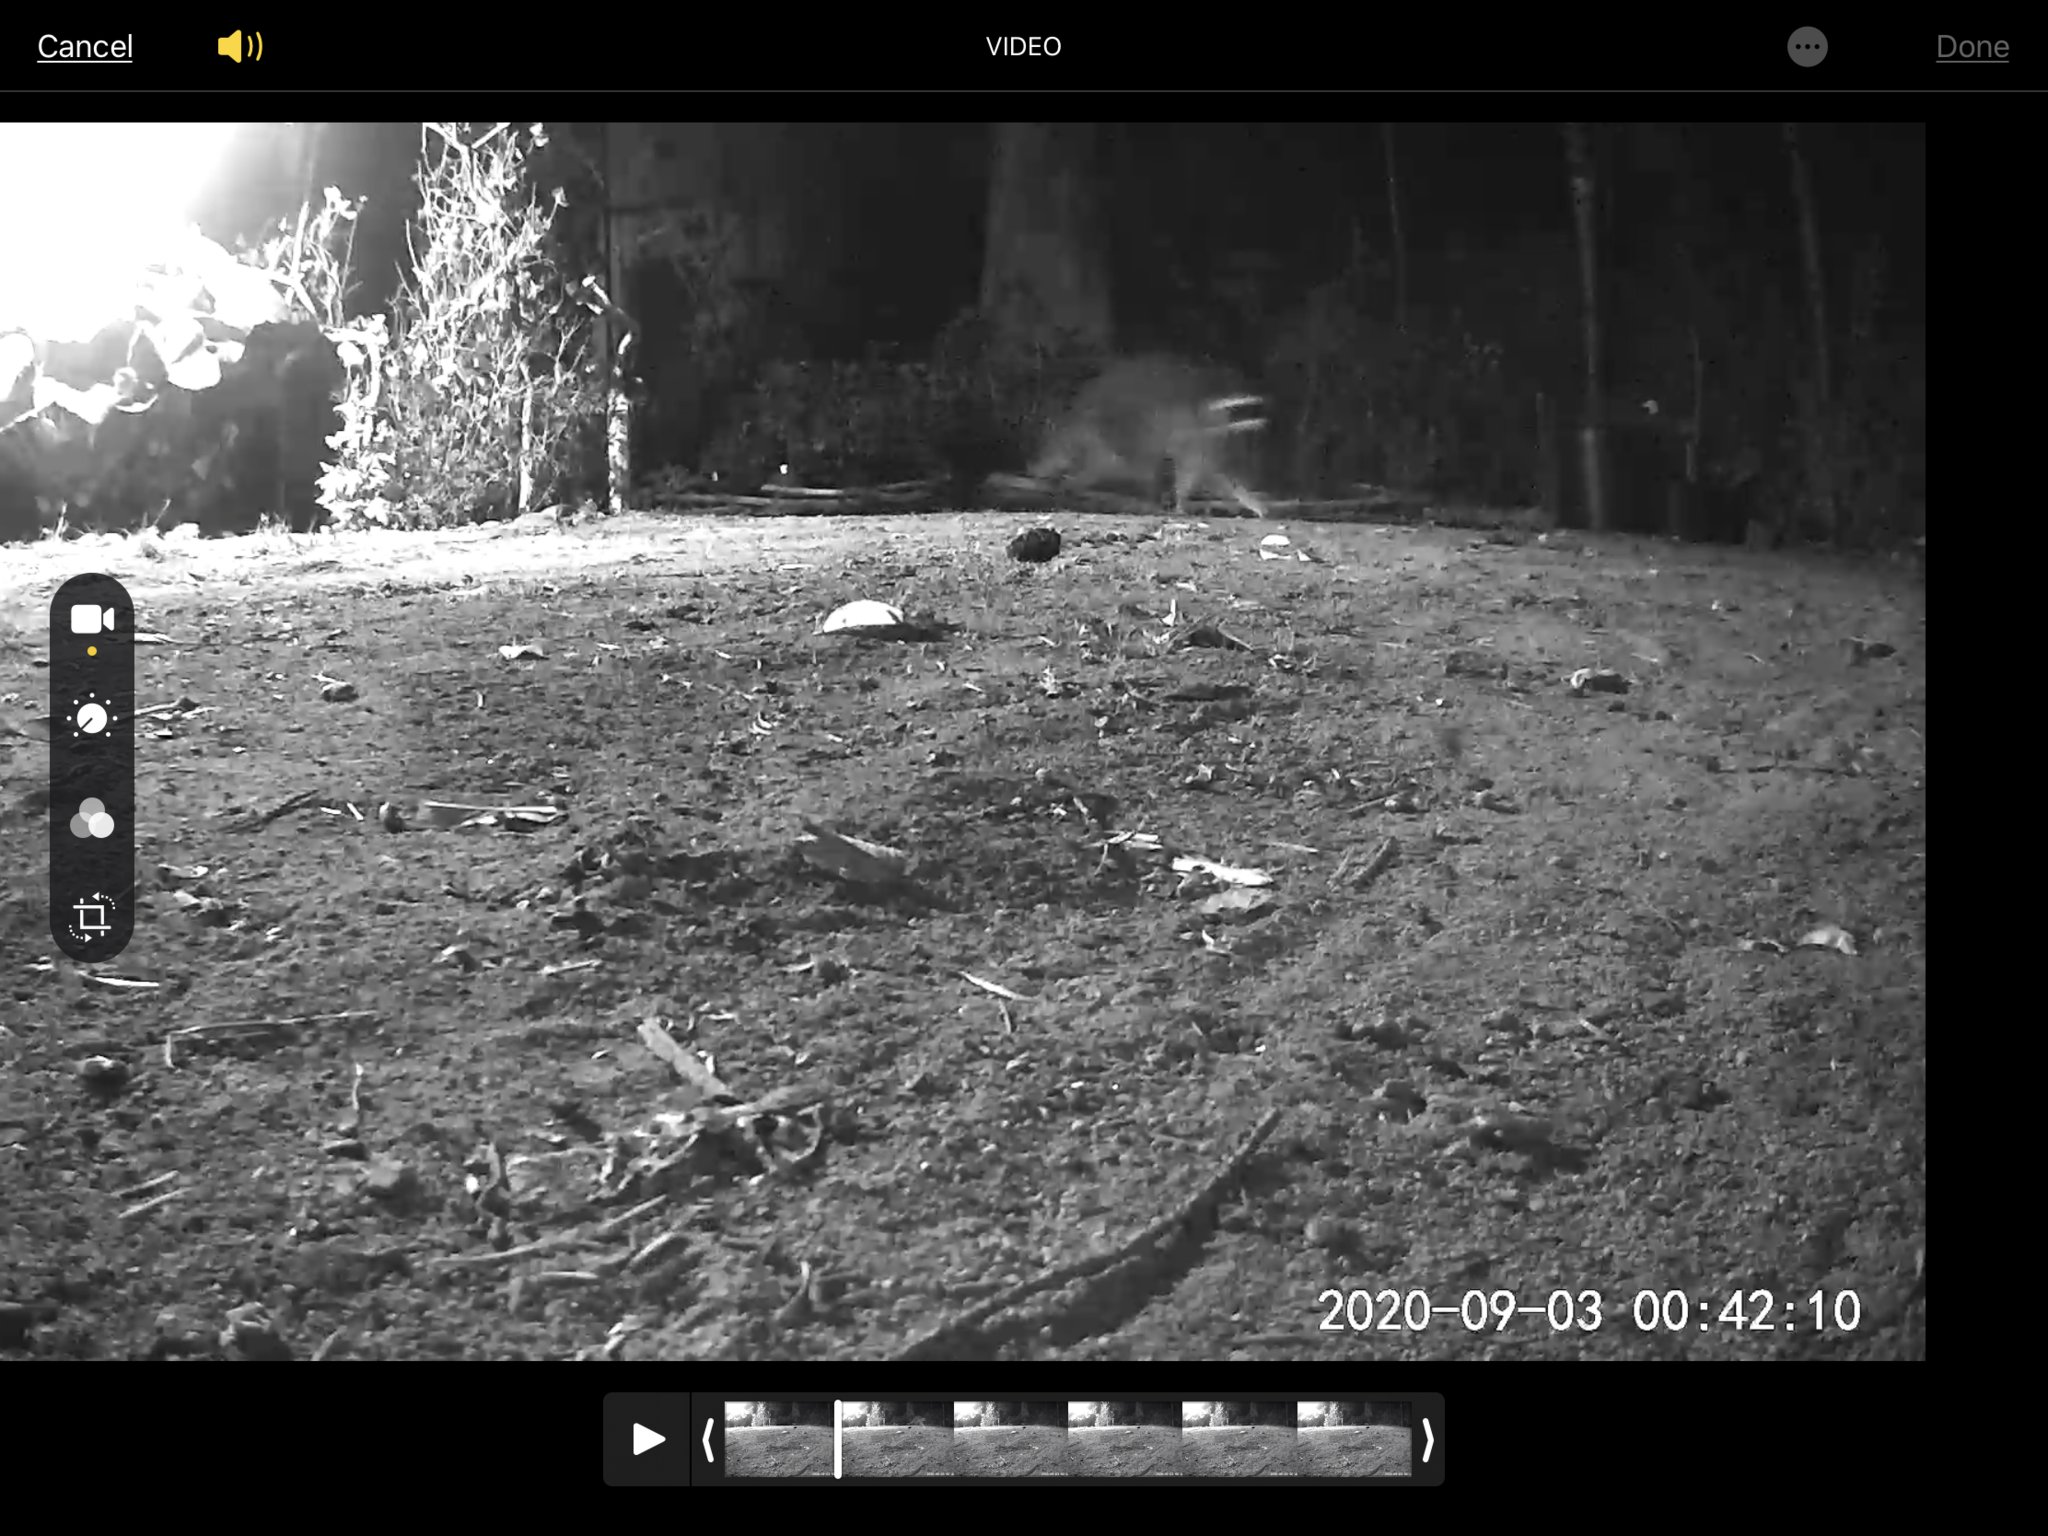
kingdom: Animalia
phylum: Chordata
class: Mammalia
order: Carnivora
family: Procyonidae
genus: Procyon
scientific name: Procyon lotor
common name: Raccoon
